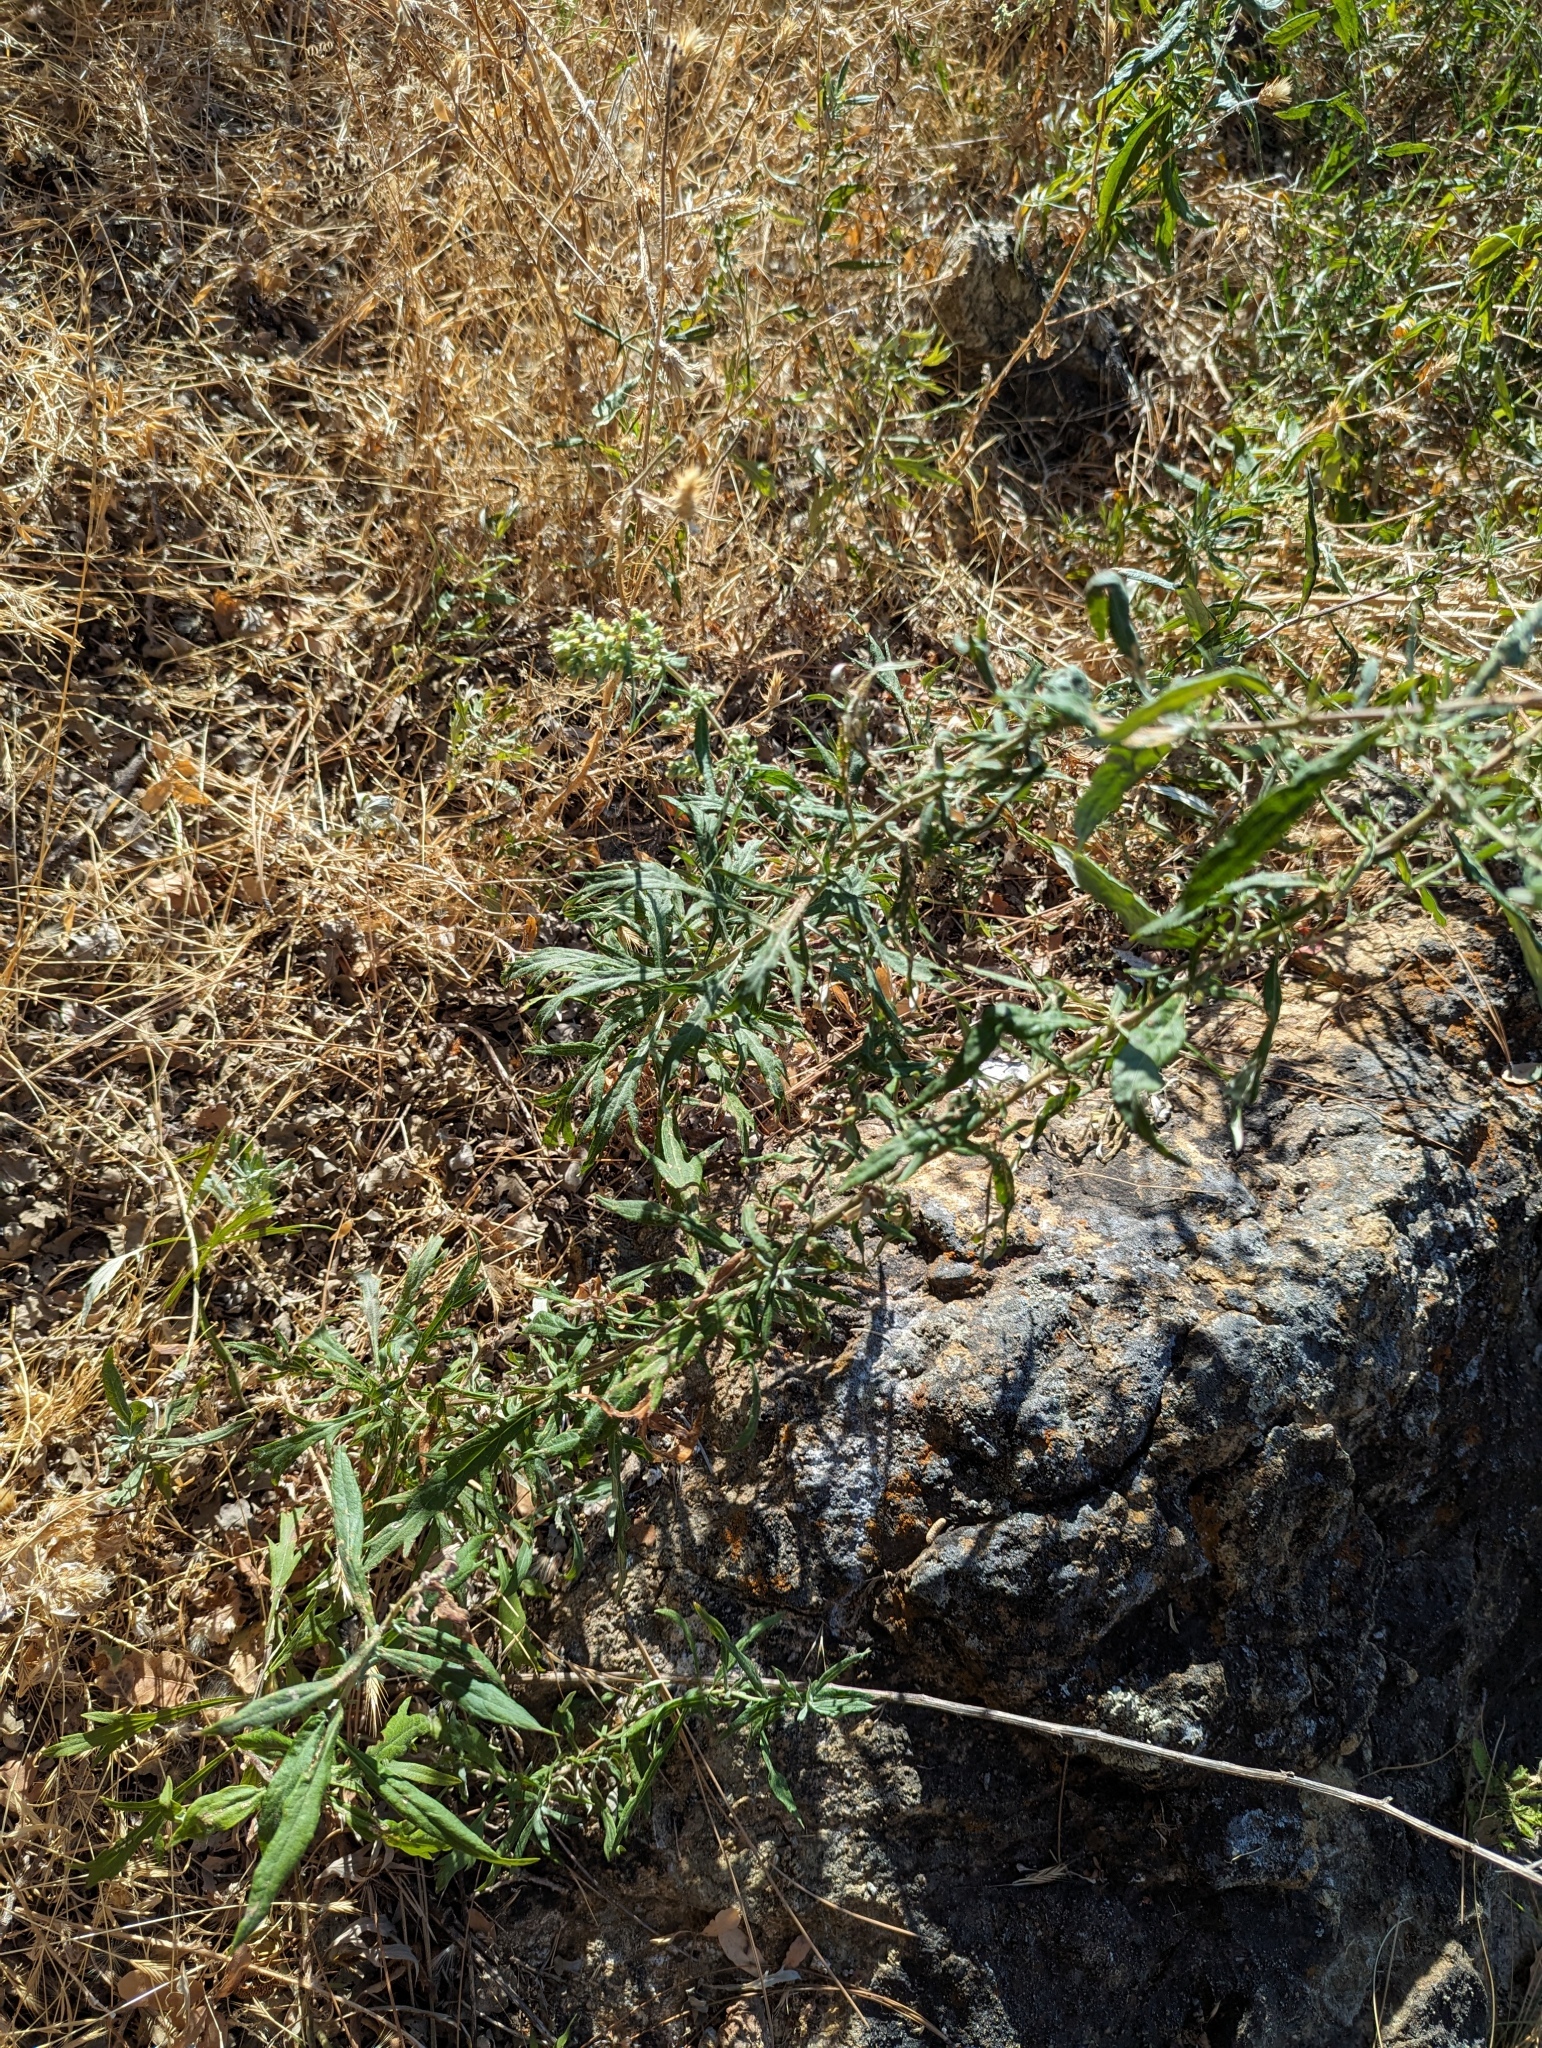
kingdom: Plantae
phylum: Tracheophyta
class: Magnoliopsida
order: Asterales
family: Asteraceae
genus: Artemisia
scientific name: Artemisia douglasiana
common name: Northwest mugwort
